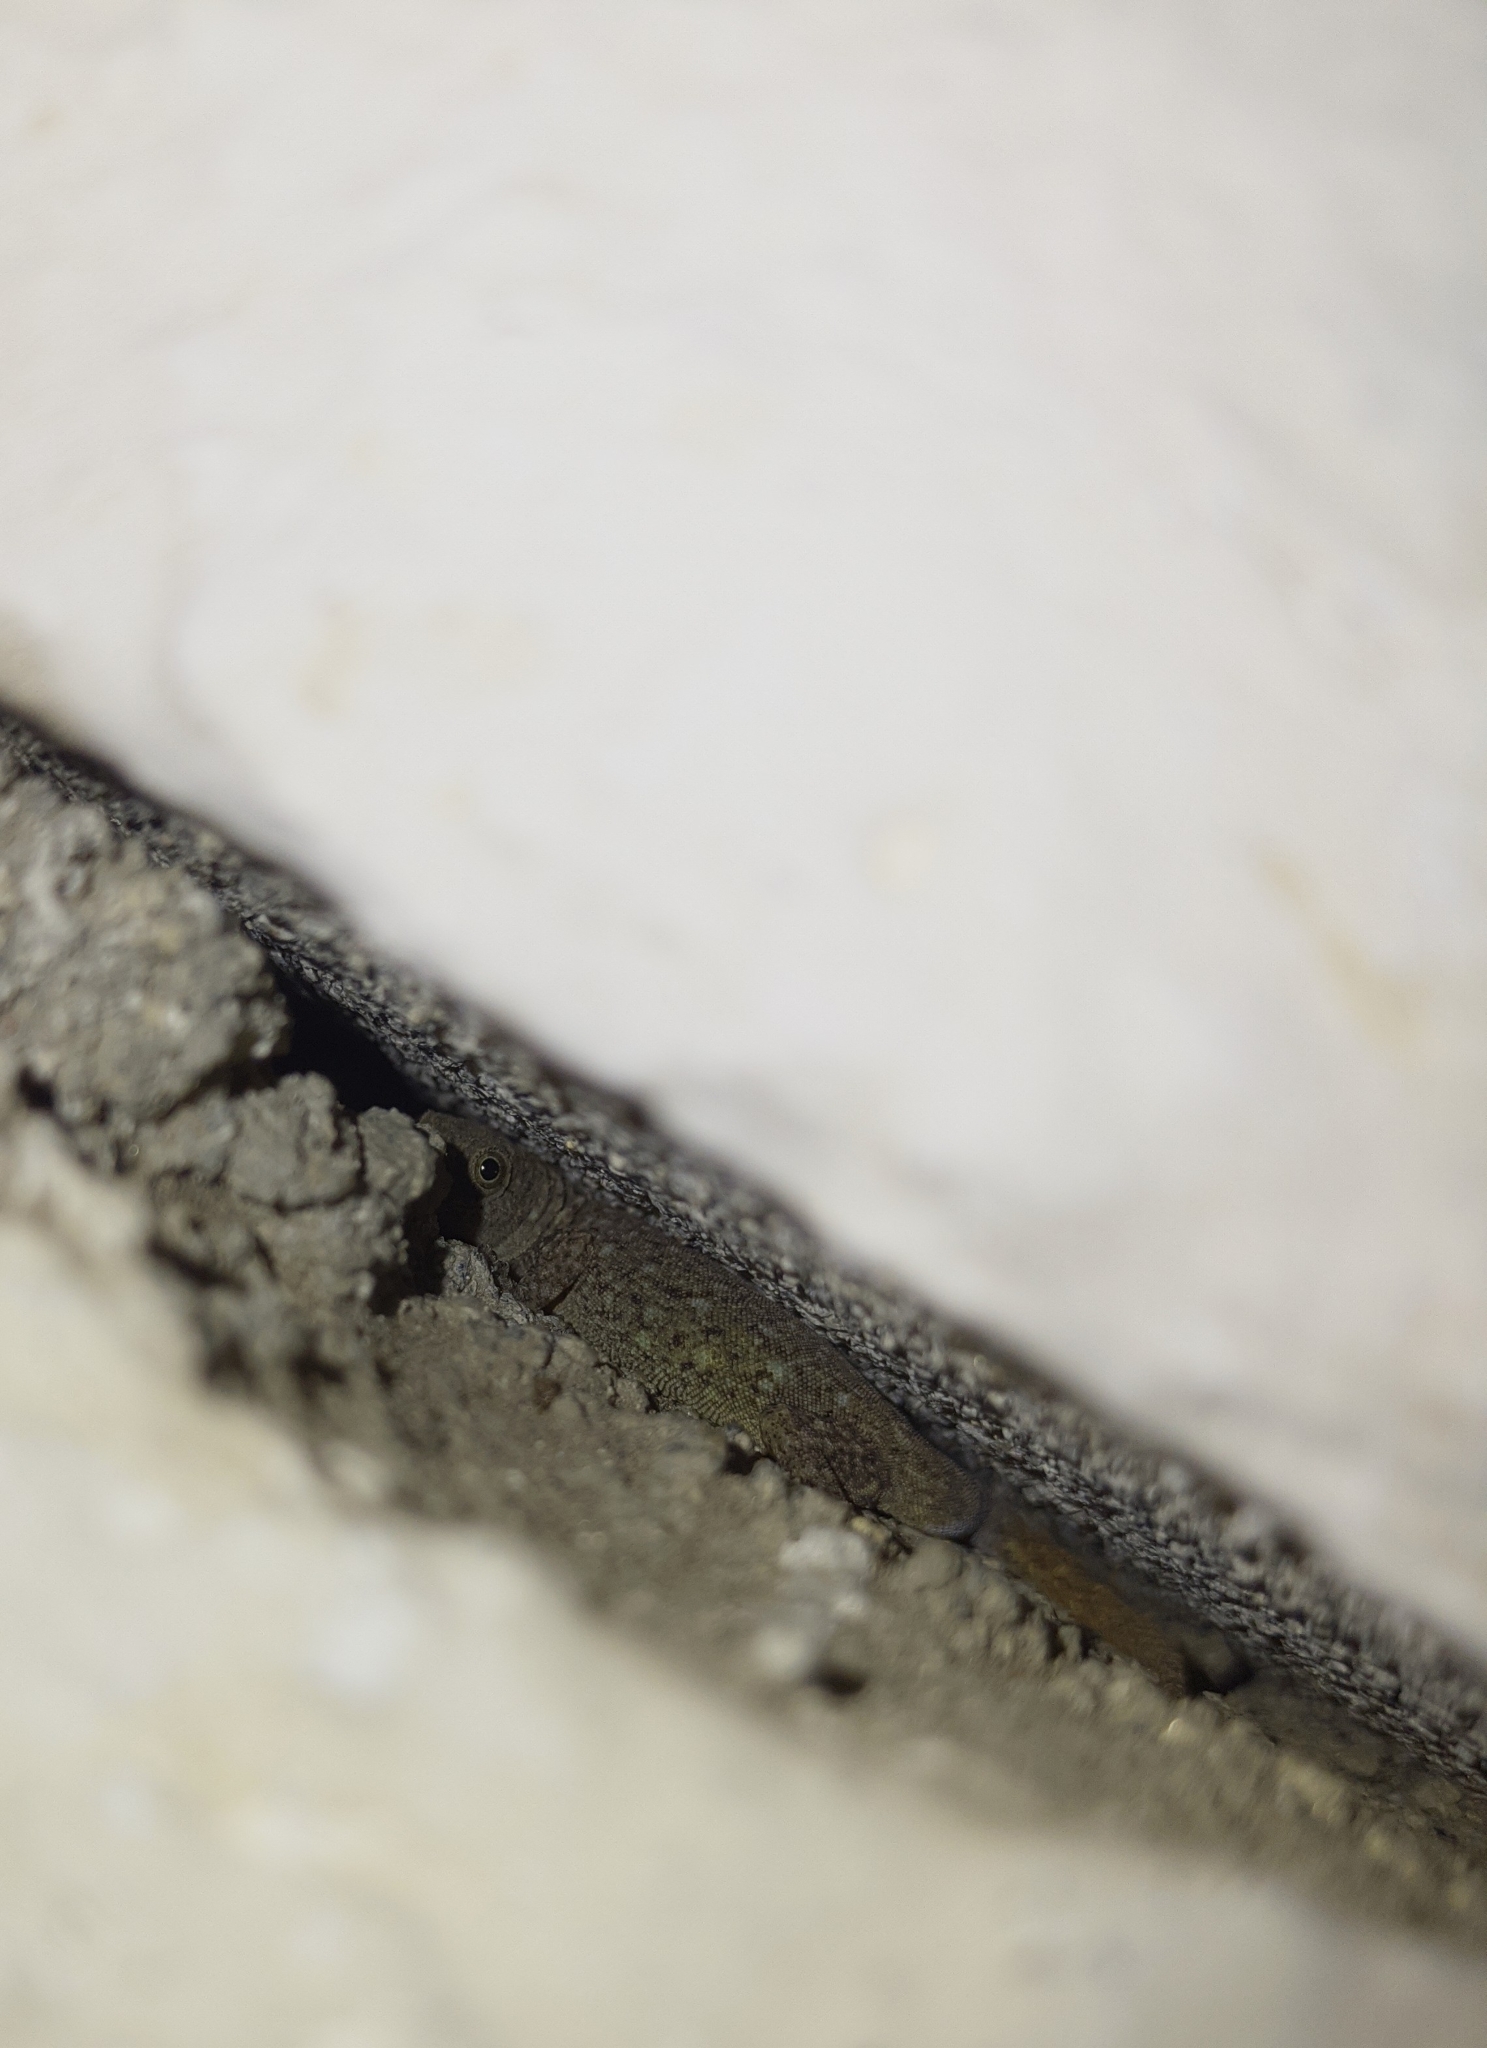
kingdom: Animalia
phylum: Chordata
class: Squamata
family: Sphaerodactylidae
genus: Gonatodes
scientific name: Gonatodes albogularis
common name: Yellow-headed gecko
